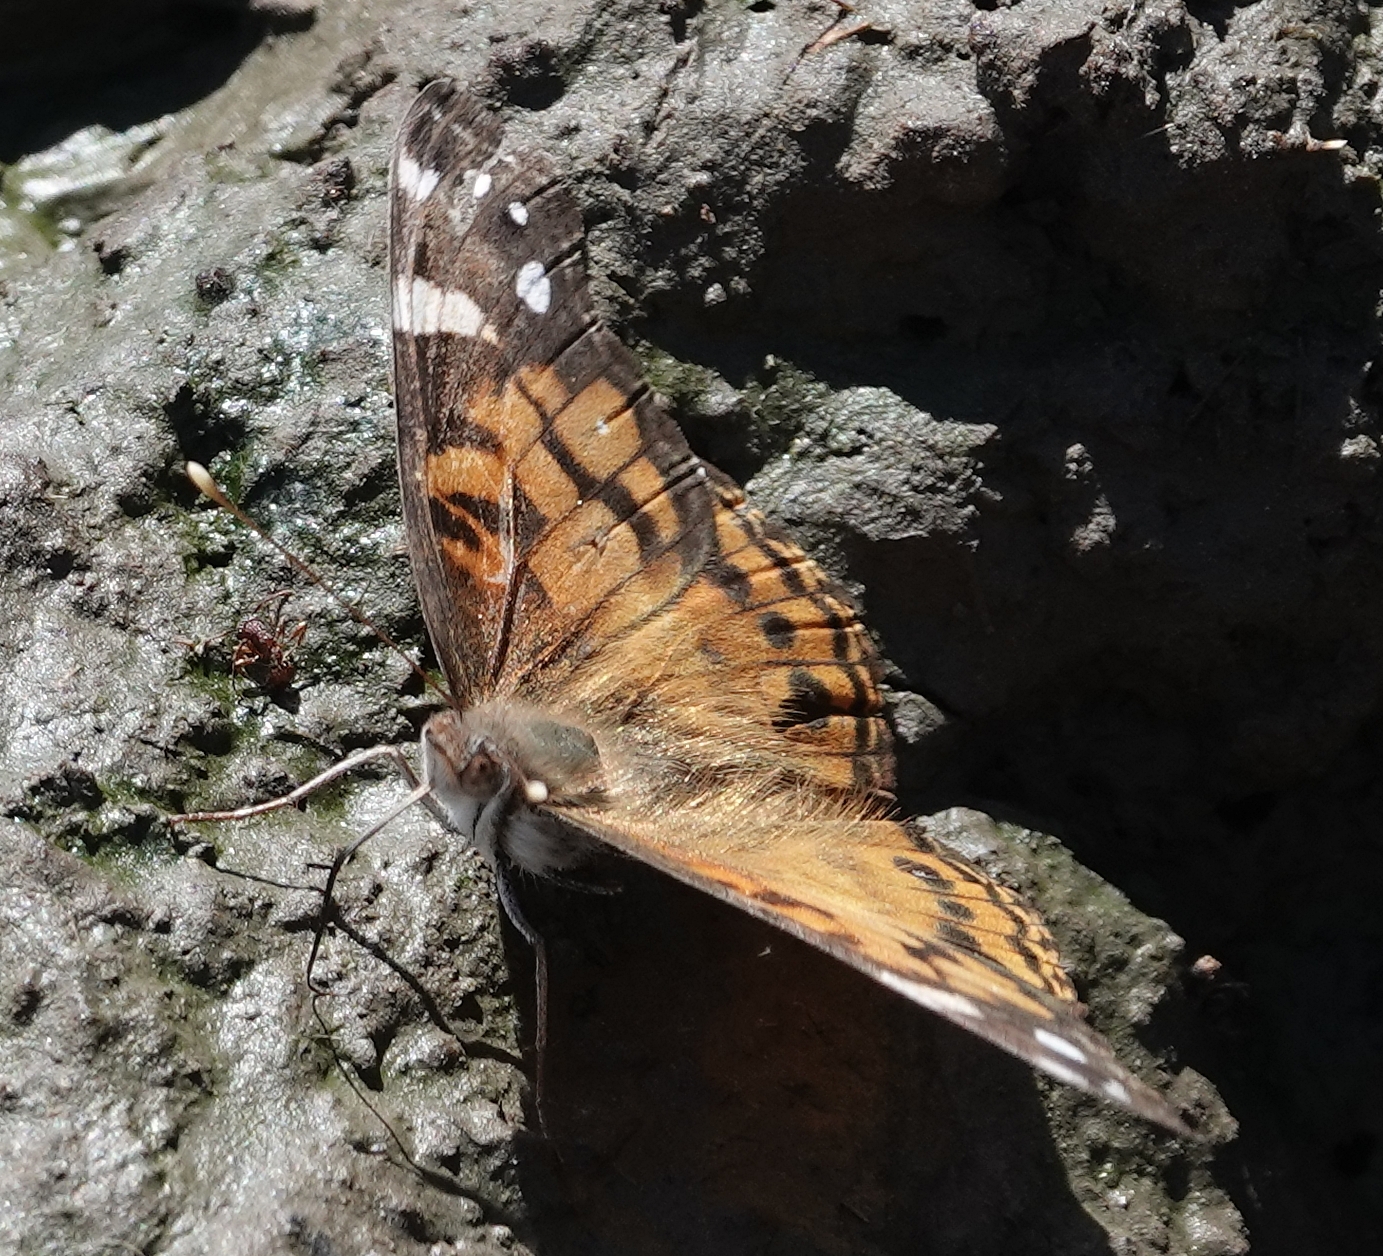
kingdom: Animalia
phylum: Arthropoda
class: Insecta
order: Lepidoptera
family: Nymphalidae
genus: Vanessa
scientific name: Vanessa virginiensis
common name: American lady
